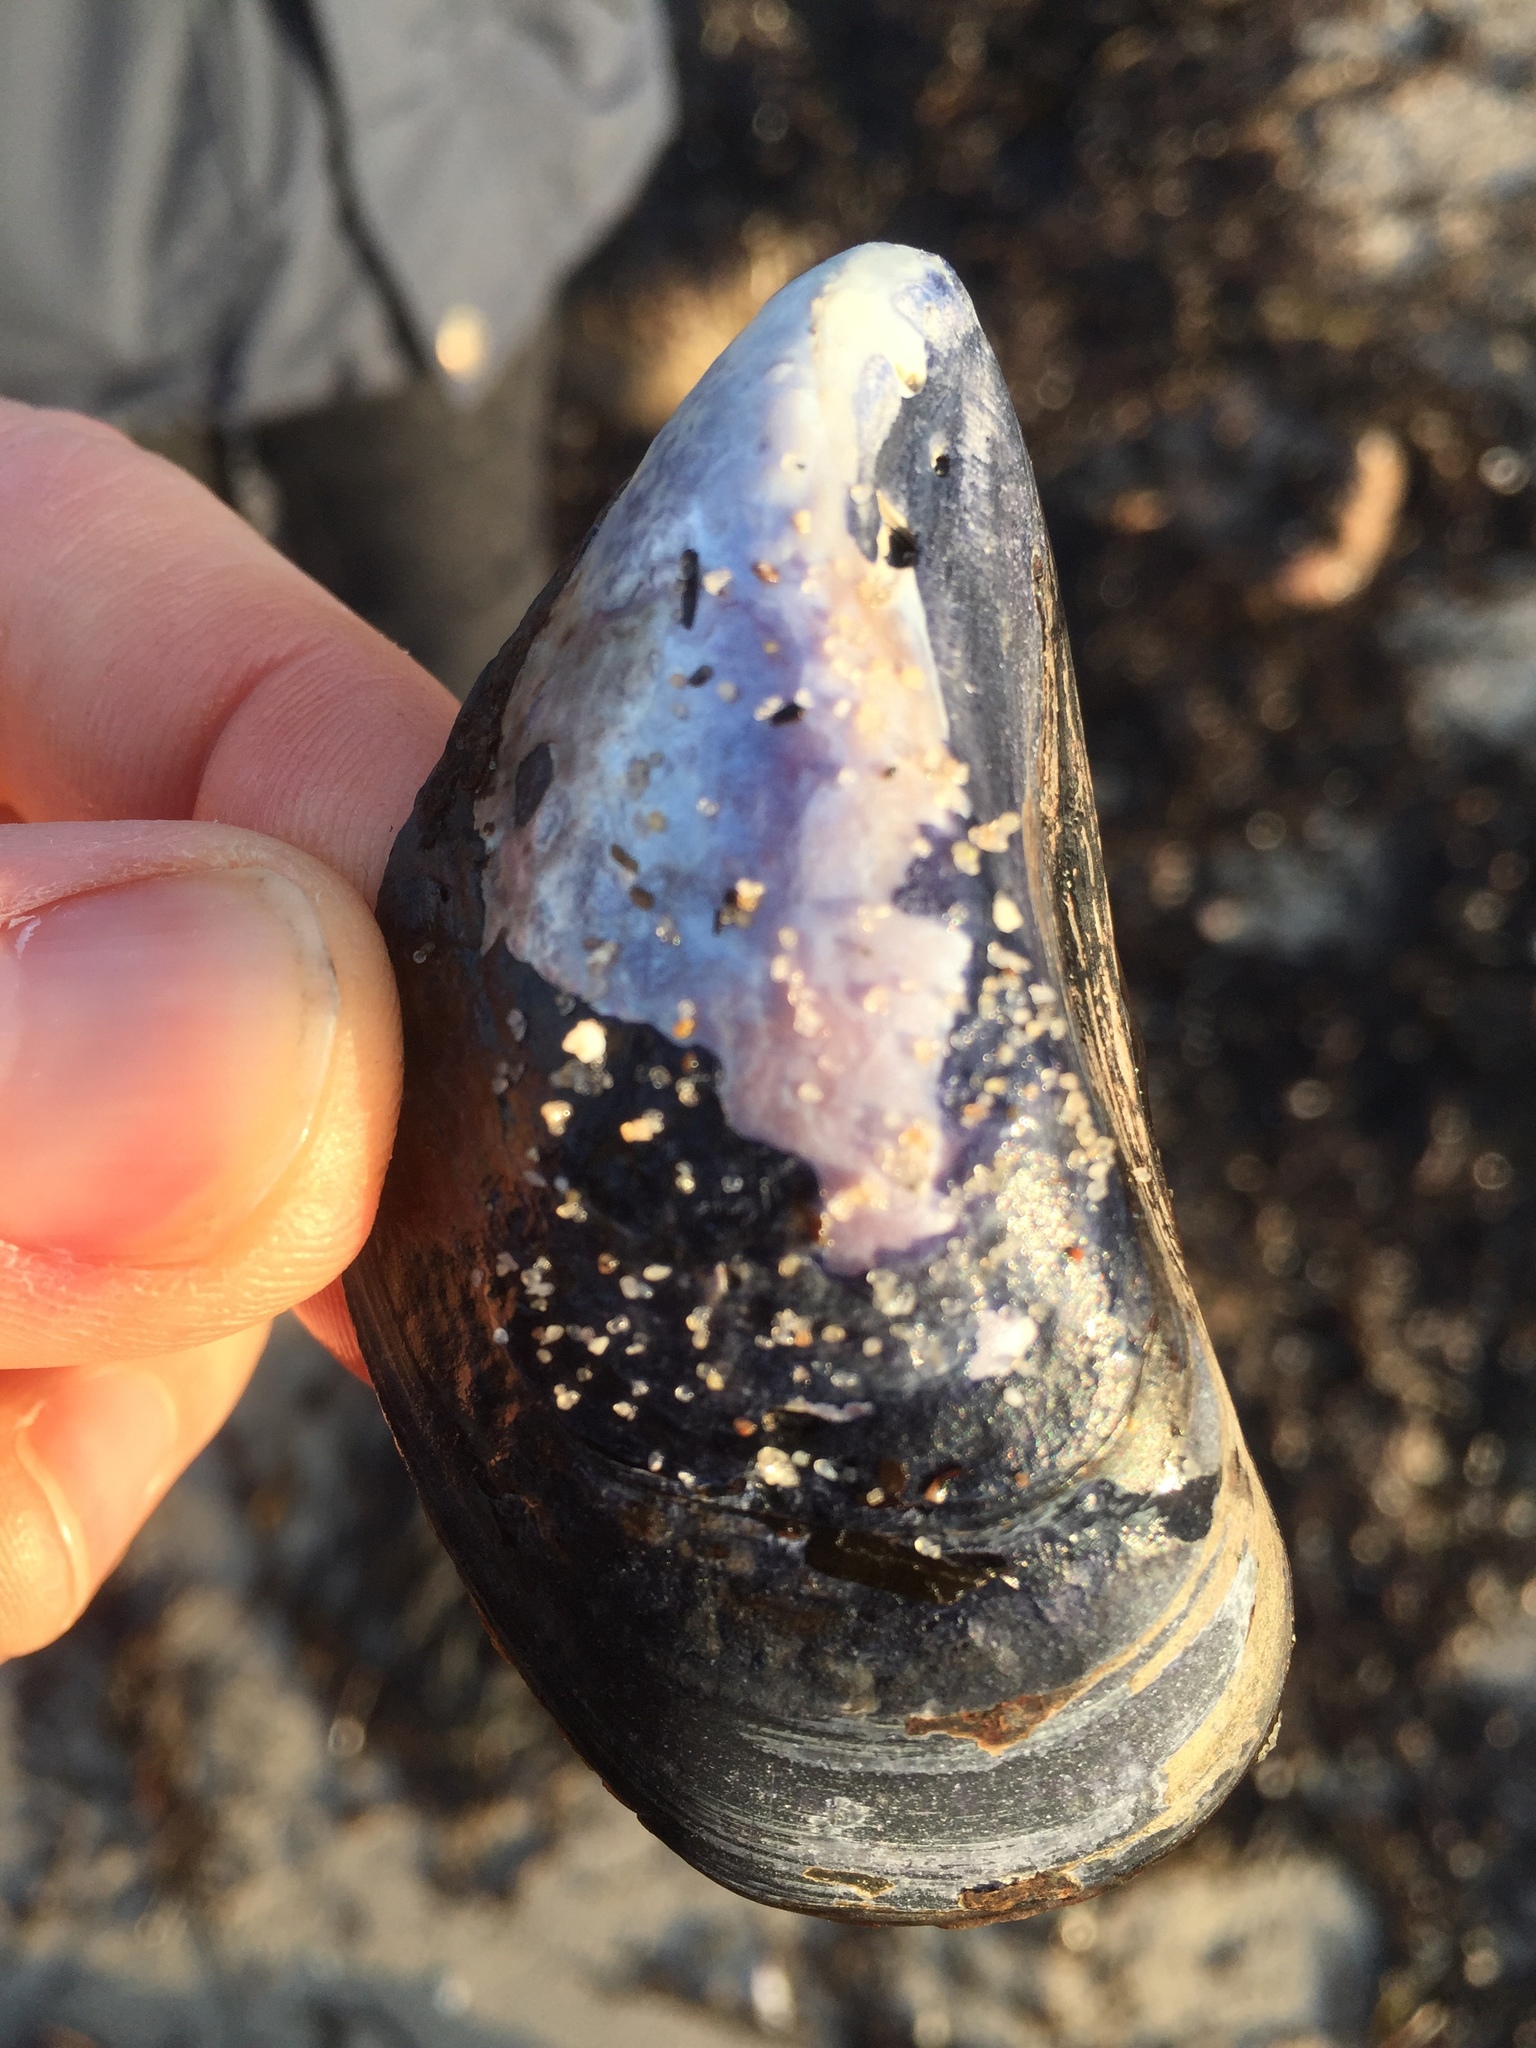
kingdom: Animalia
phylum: Mollusca
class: Bivalvia
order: Mytilida
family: Mytilidae
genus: Mytilus
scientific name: Mytilus edulis
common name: Blue mussel
